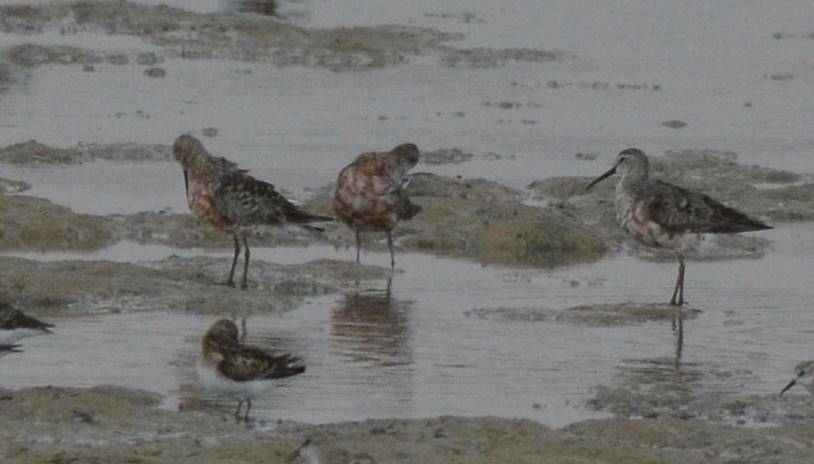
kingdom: Animalia
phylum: Chordata
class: Aves
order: Charadriiformes
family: Scolopacidae
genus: Calidris
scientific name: Calidris ferruginea
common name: Curlew sandpiper
